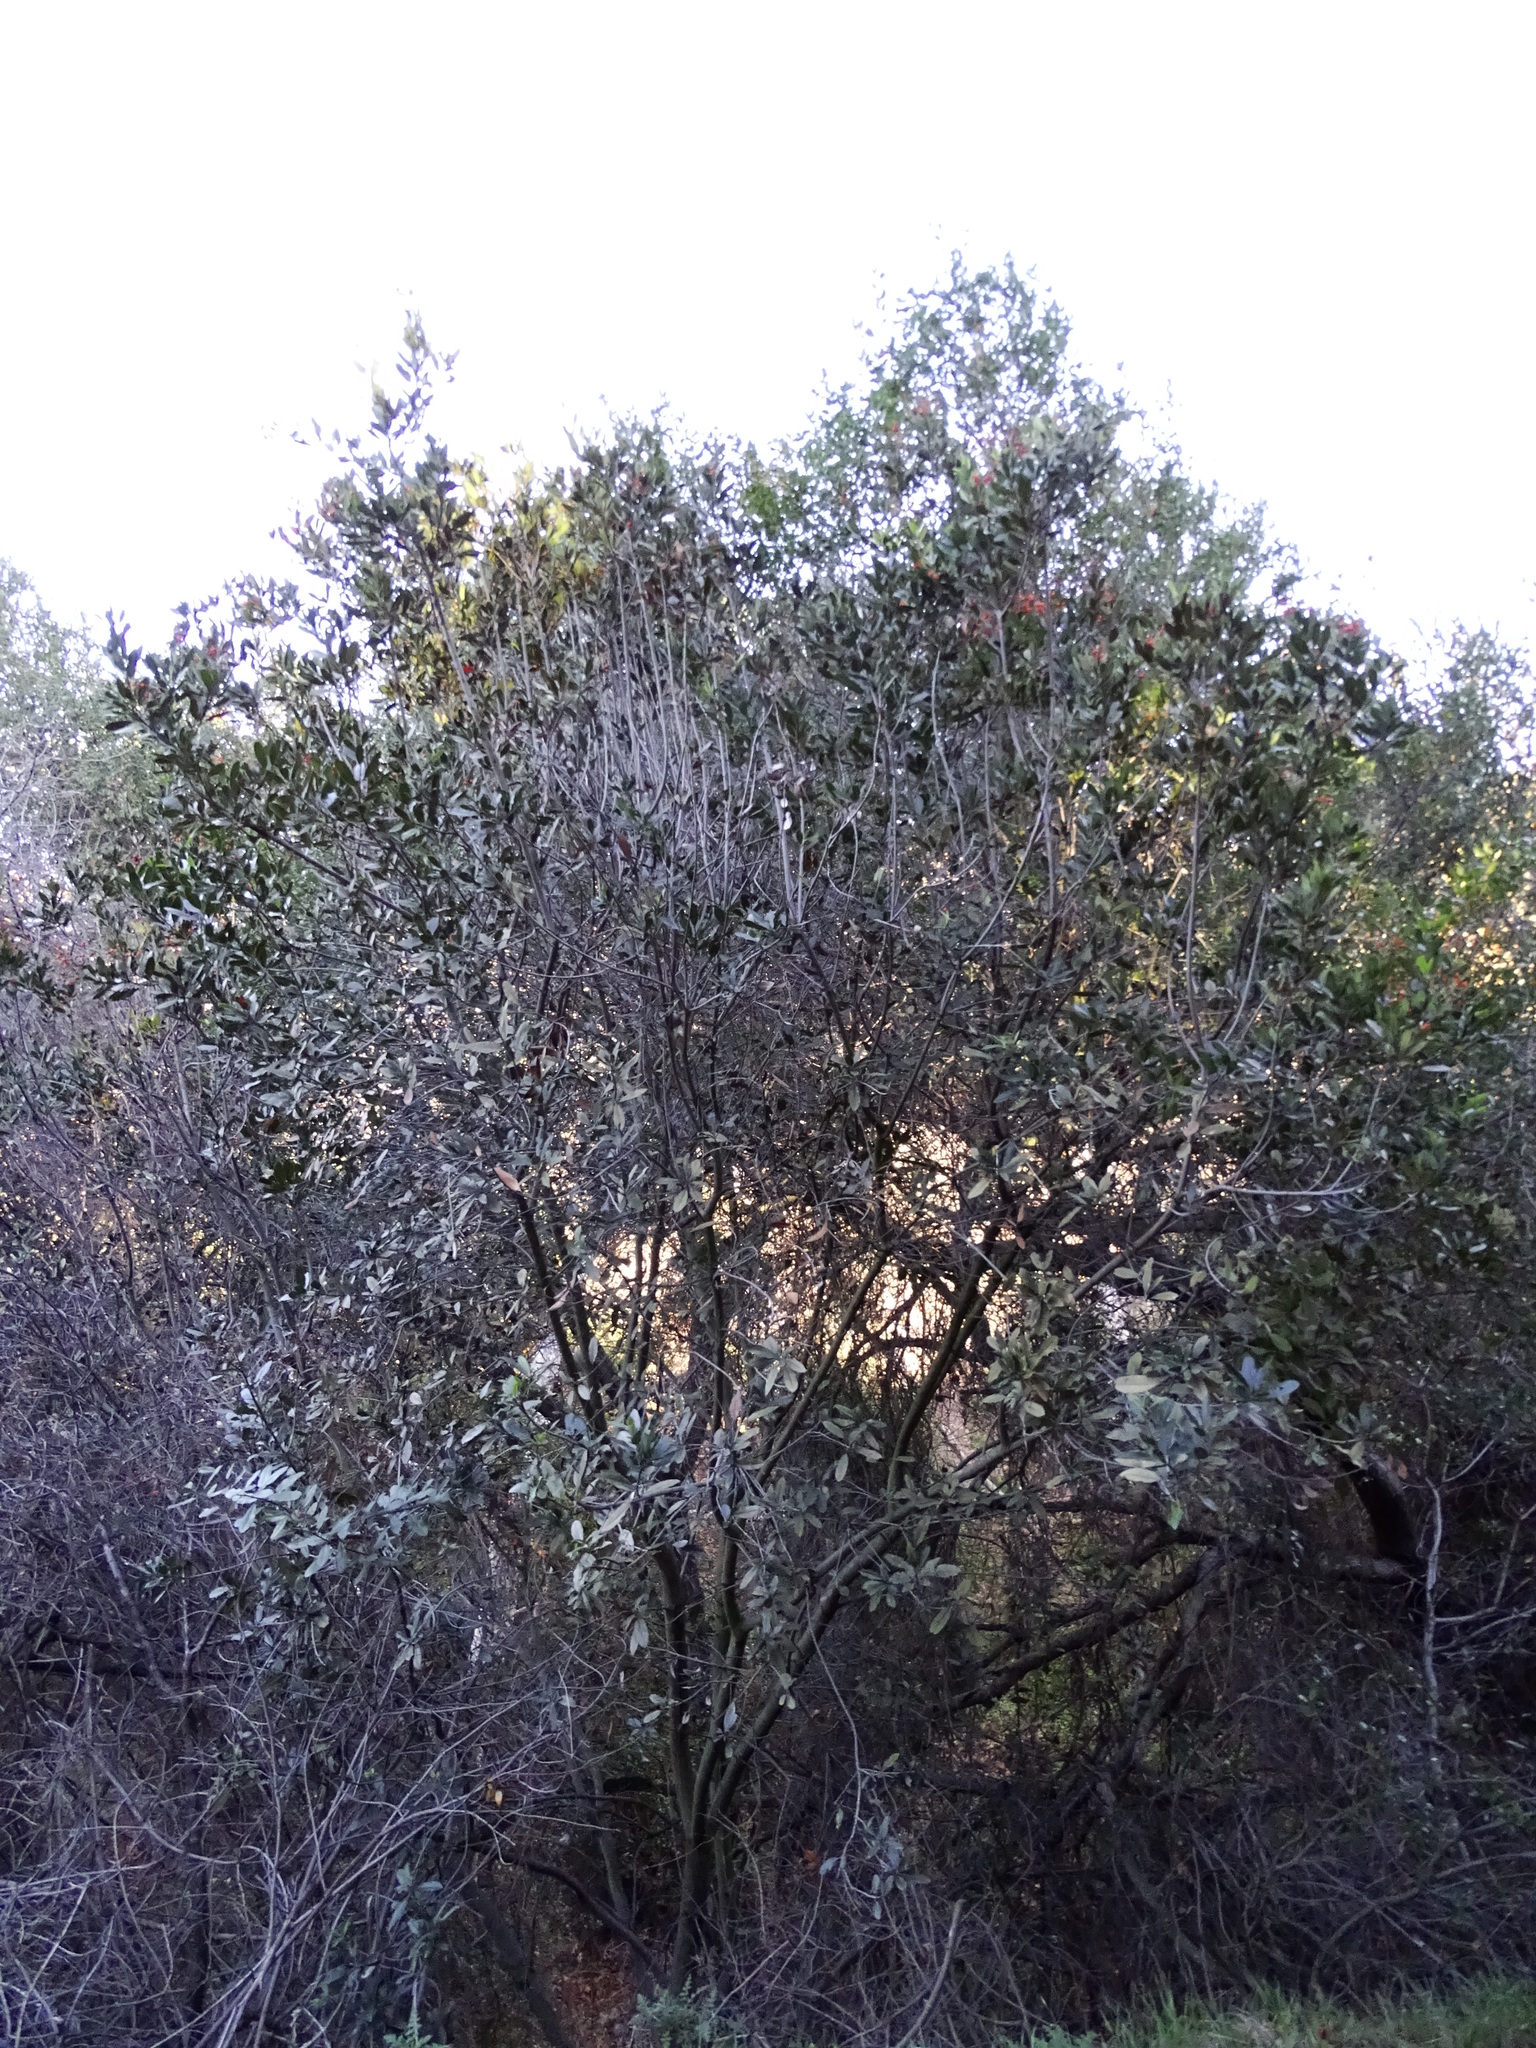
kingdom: Plantae
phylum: Tracheophyta
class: Magnoliopsida
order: Rosales
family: Rosaceae
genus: Heteromeles
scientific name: Heteromeles arbutifolia
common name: California-holly
